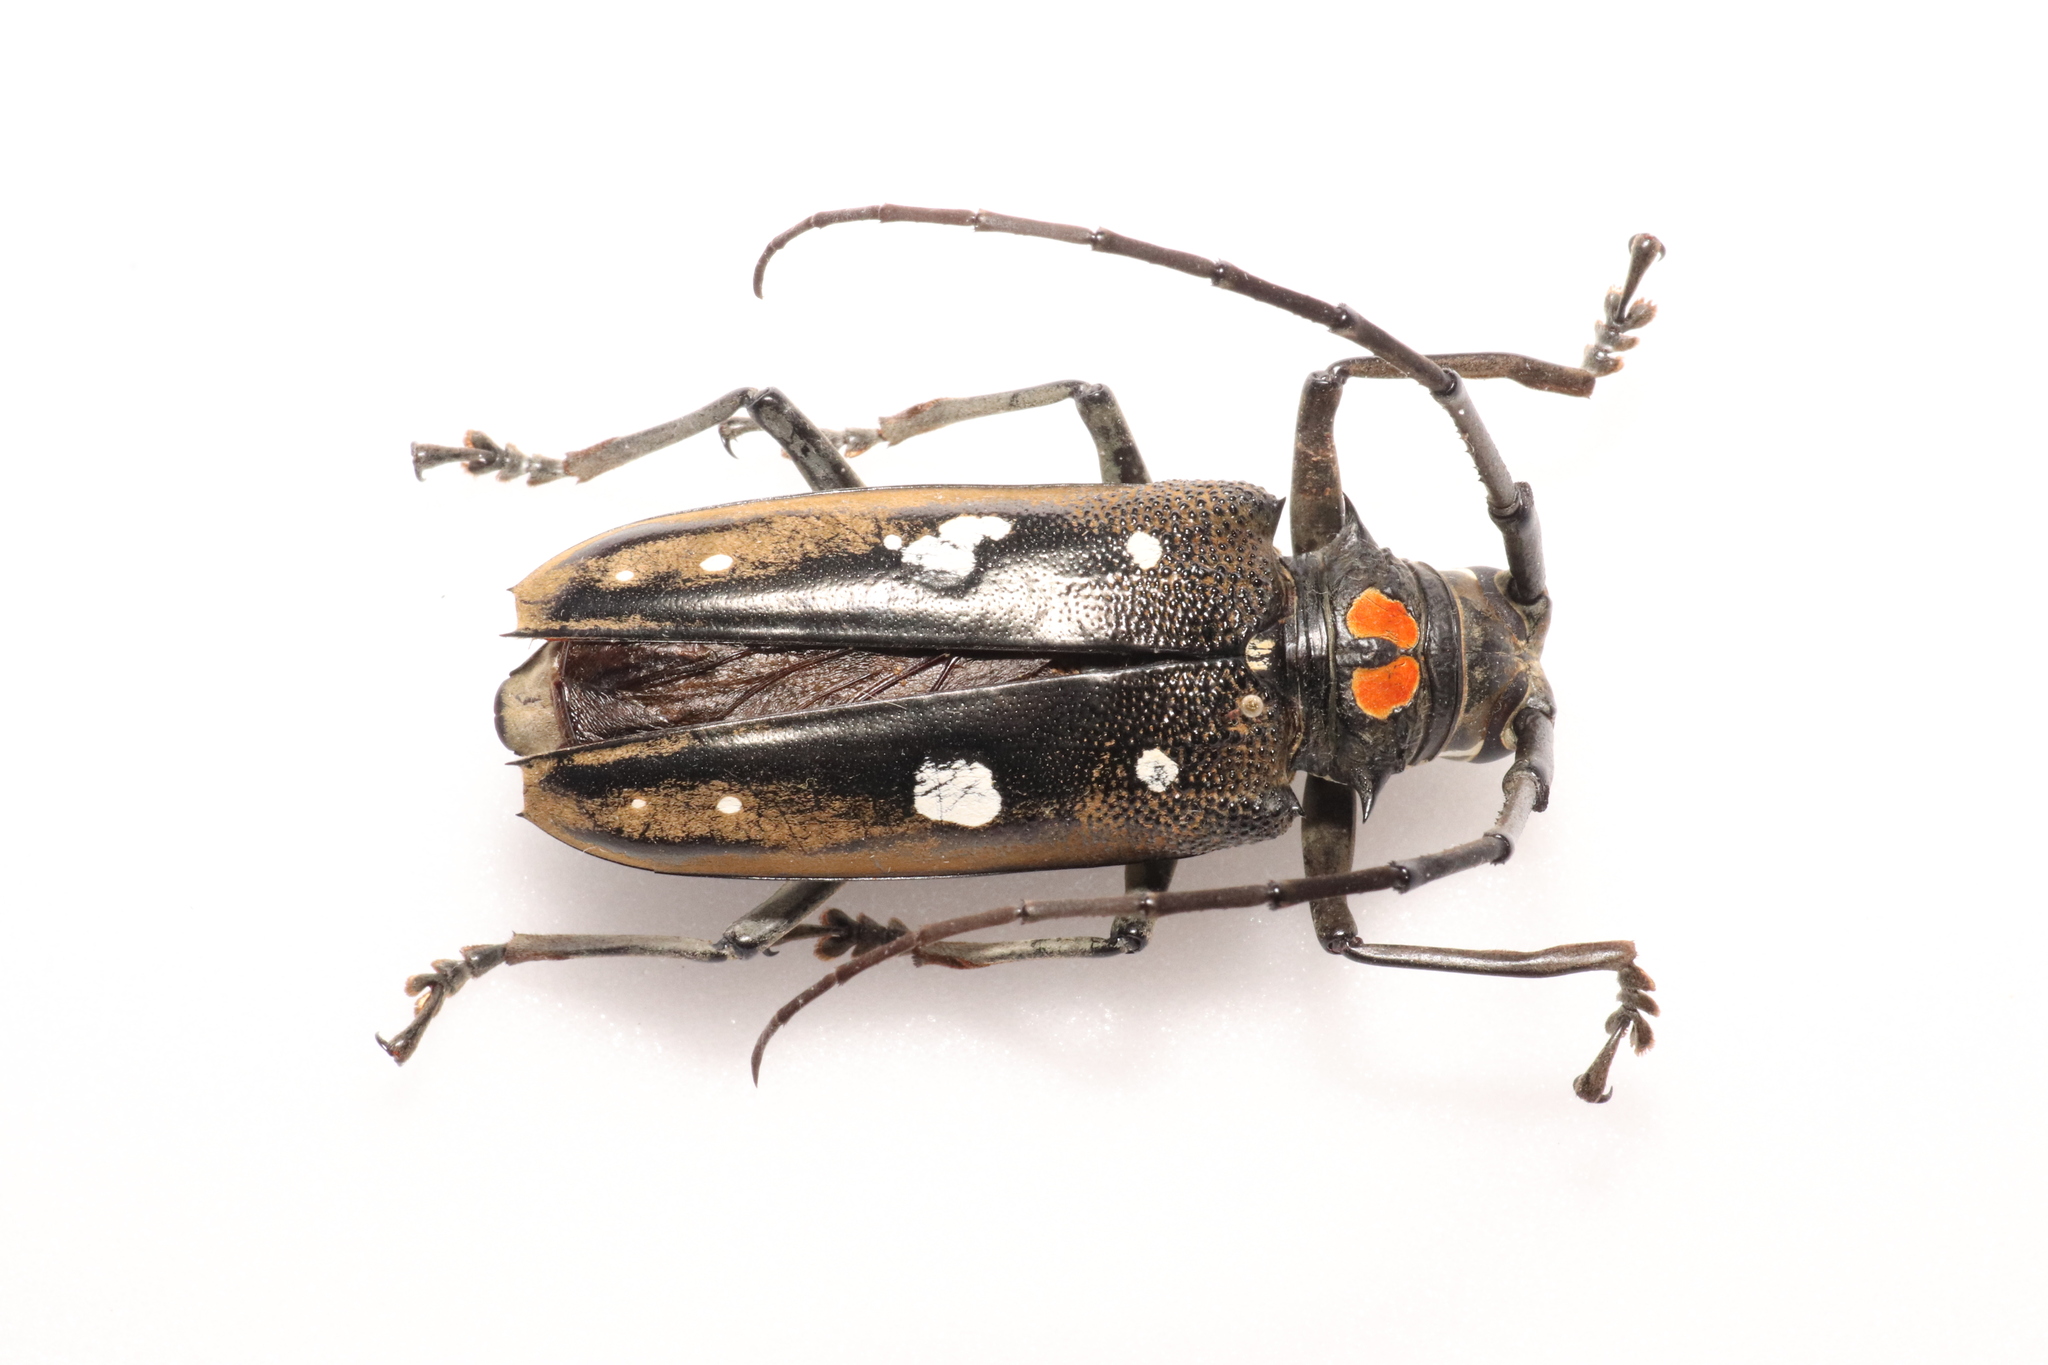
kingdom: Animalia
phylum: Arthropoda
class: Insecta
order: Coleoptera
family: Cerambycidae
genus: Batocera
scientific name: Batocera celebiana
